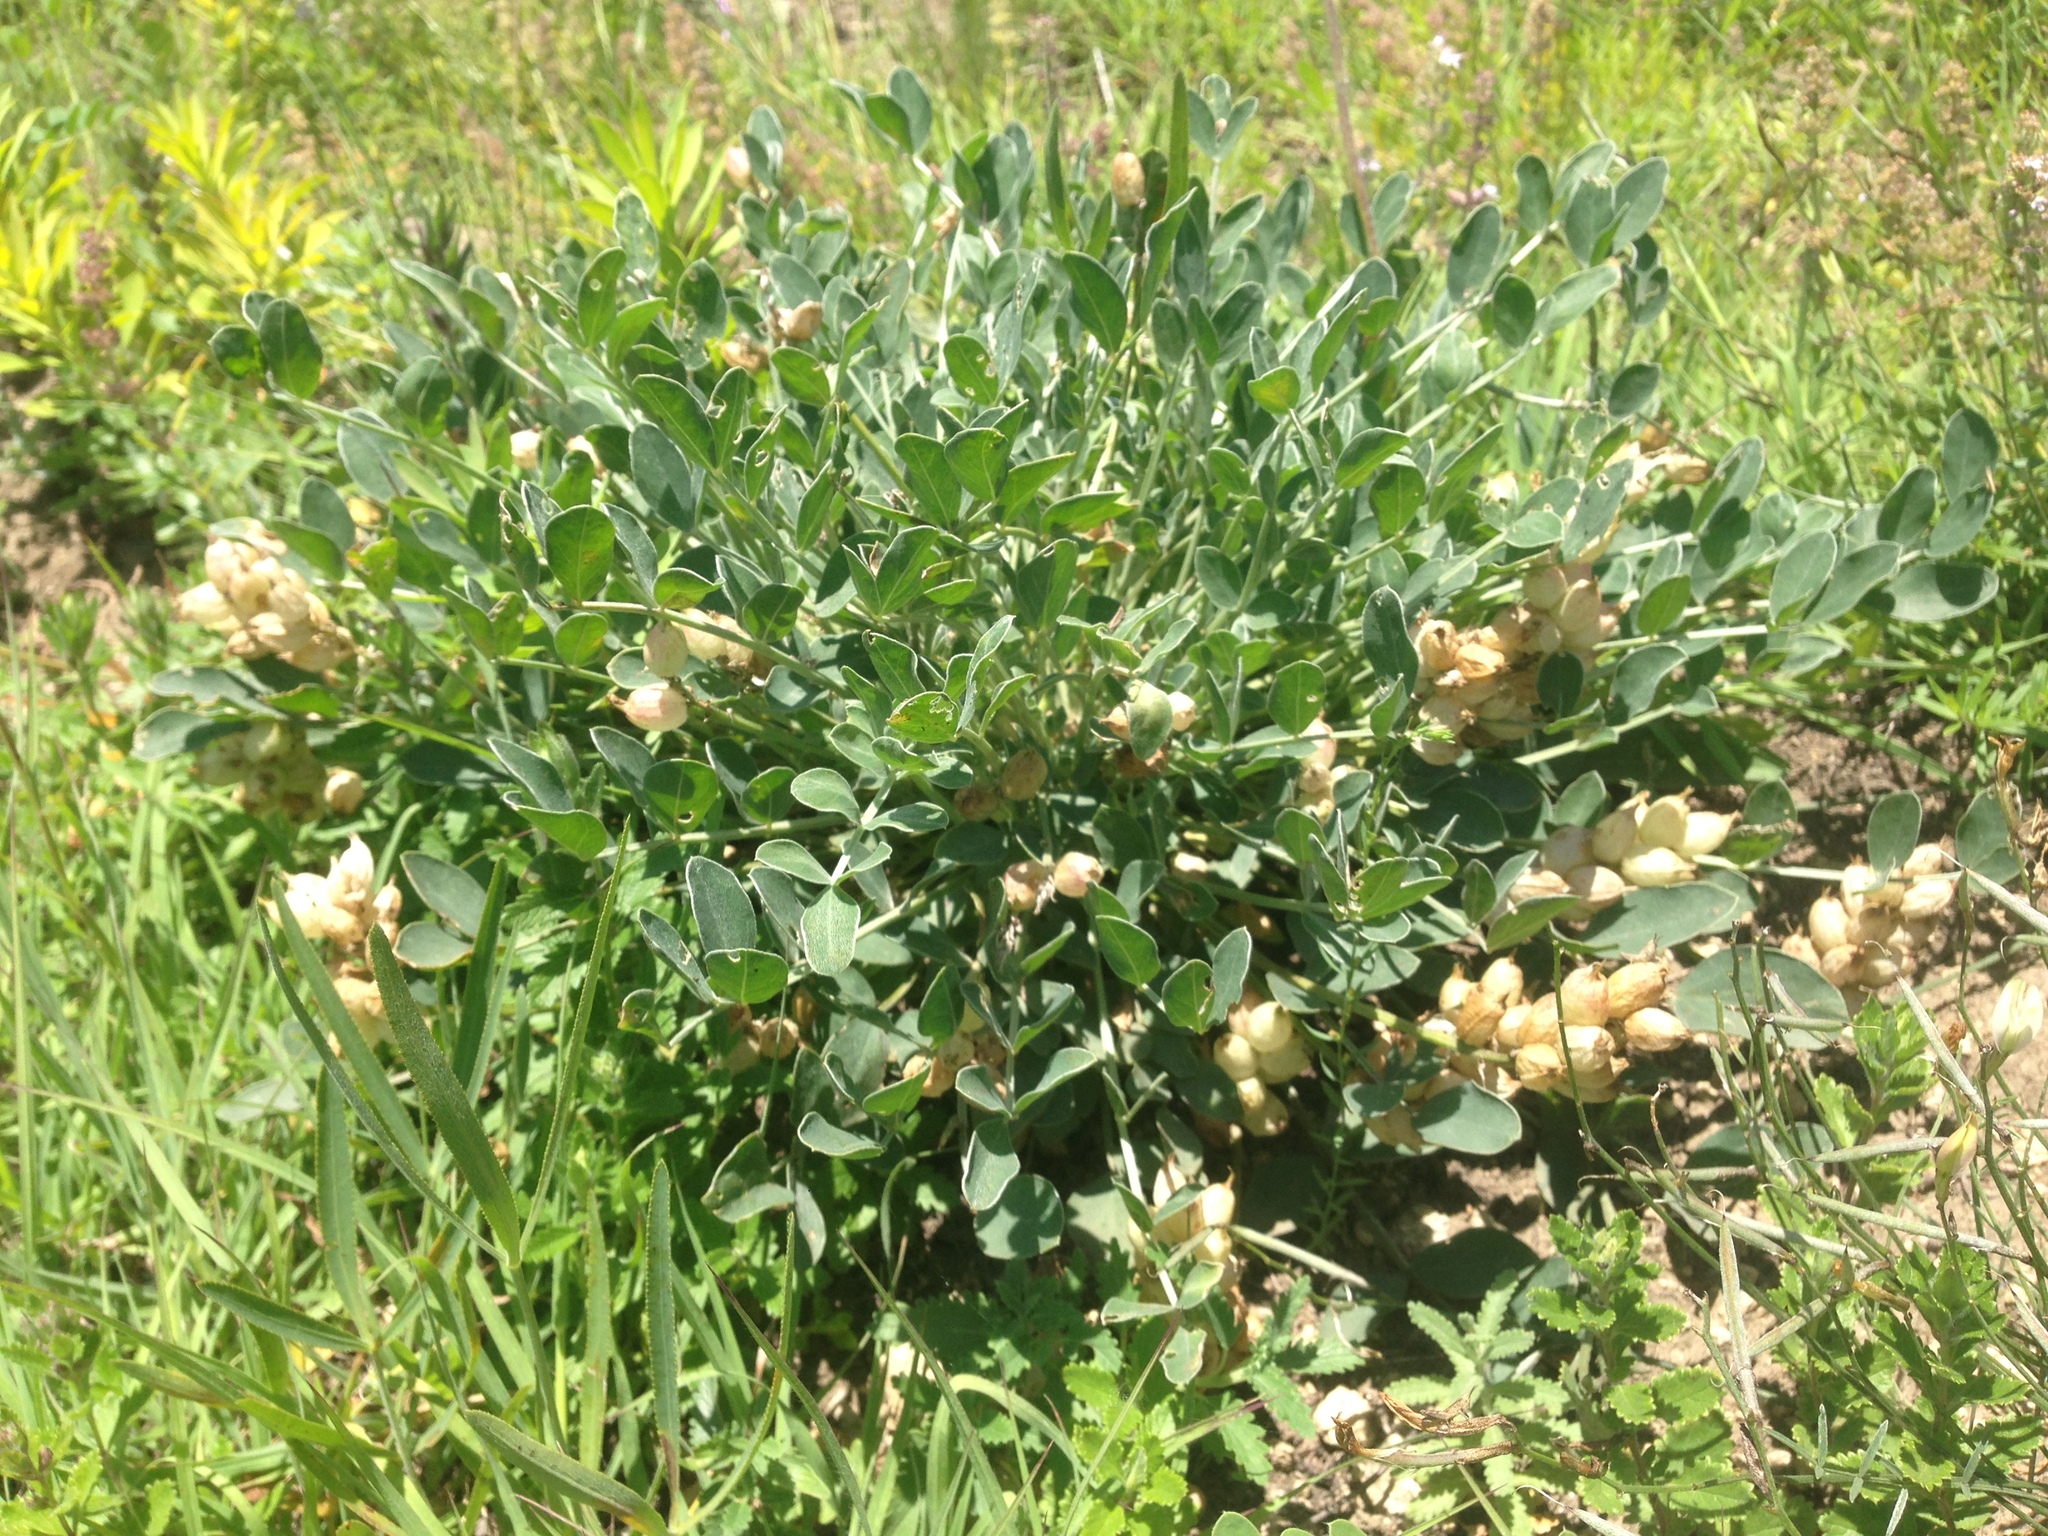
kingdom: Plantae
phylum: Tracheophyta
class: Magnoliopsida
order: Fabales
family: Fabaceae
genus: Astragalus
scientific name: Astragalus calycinus
